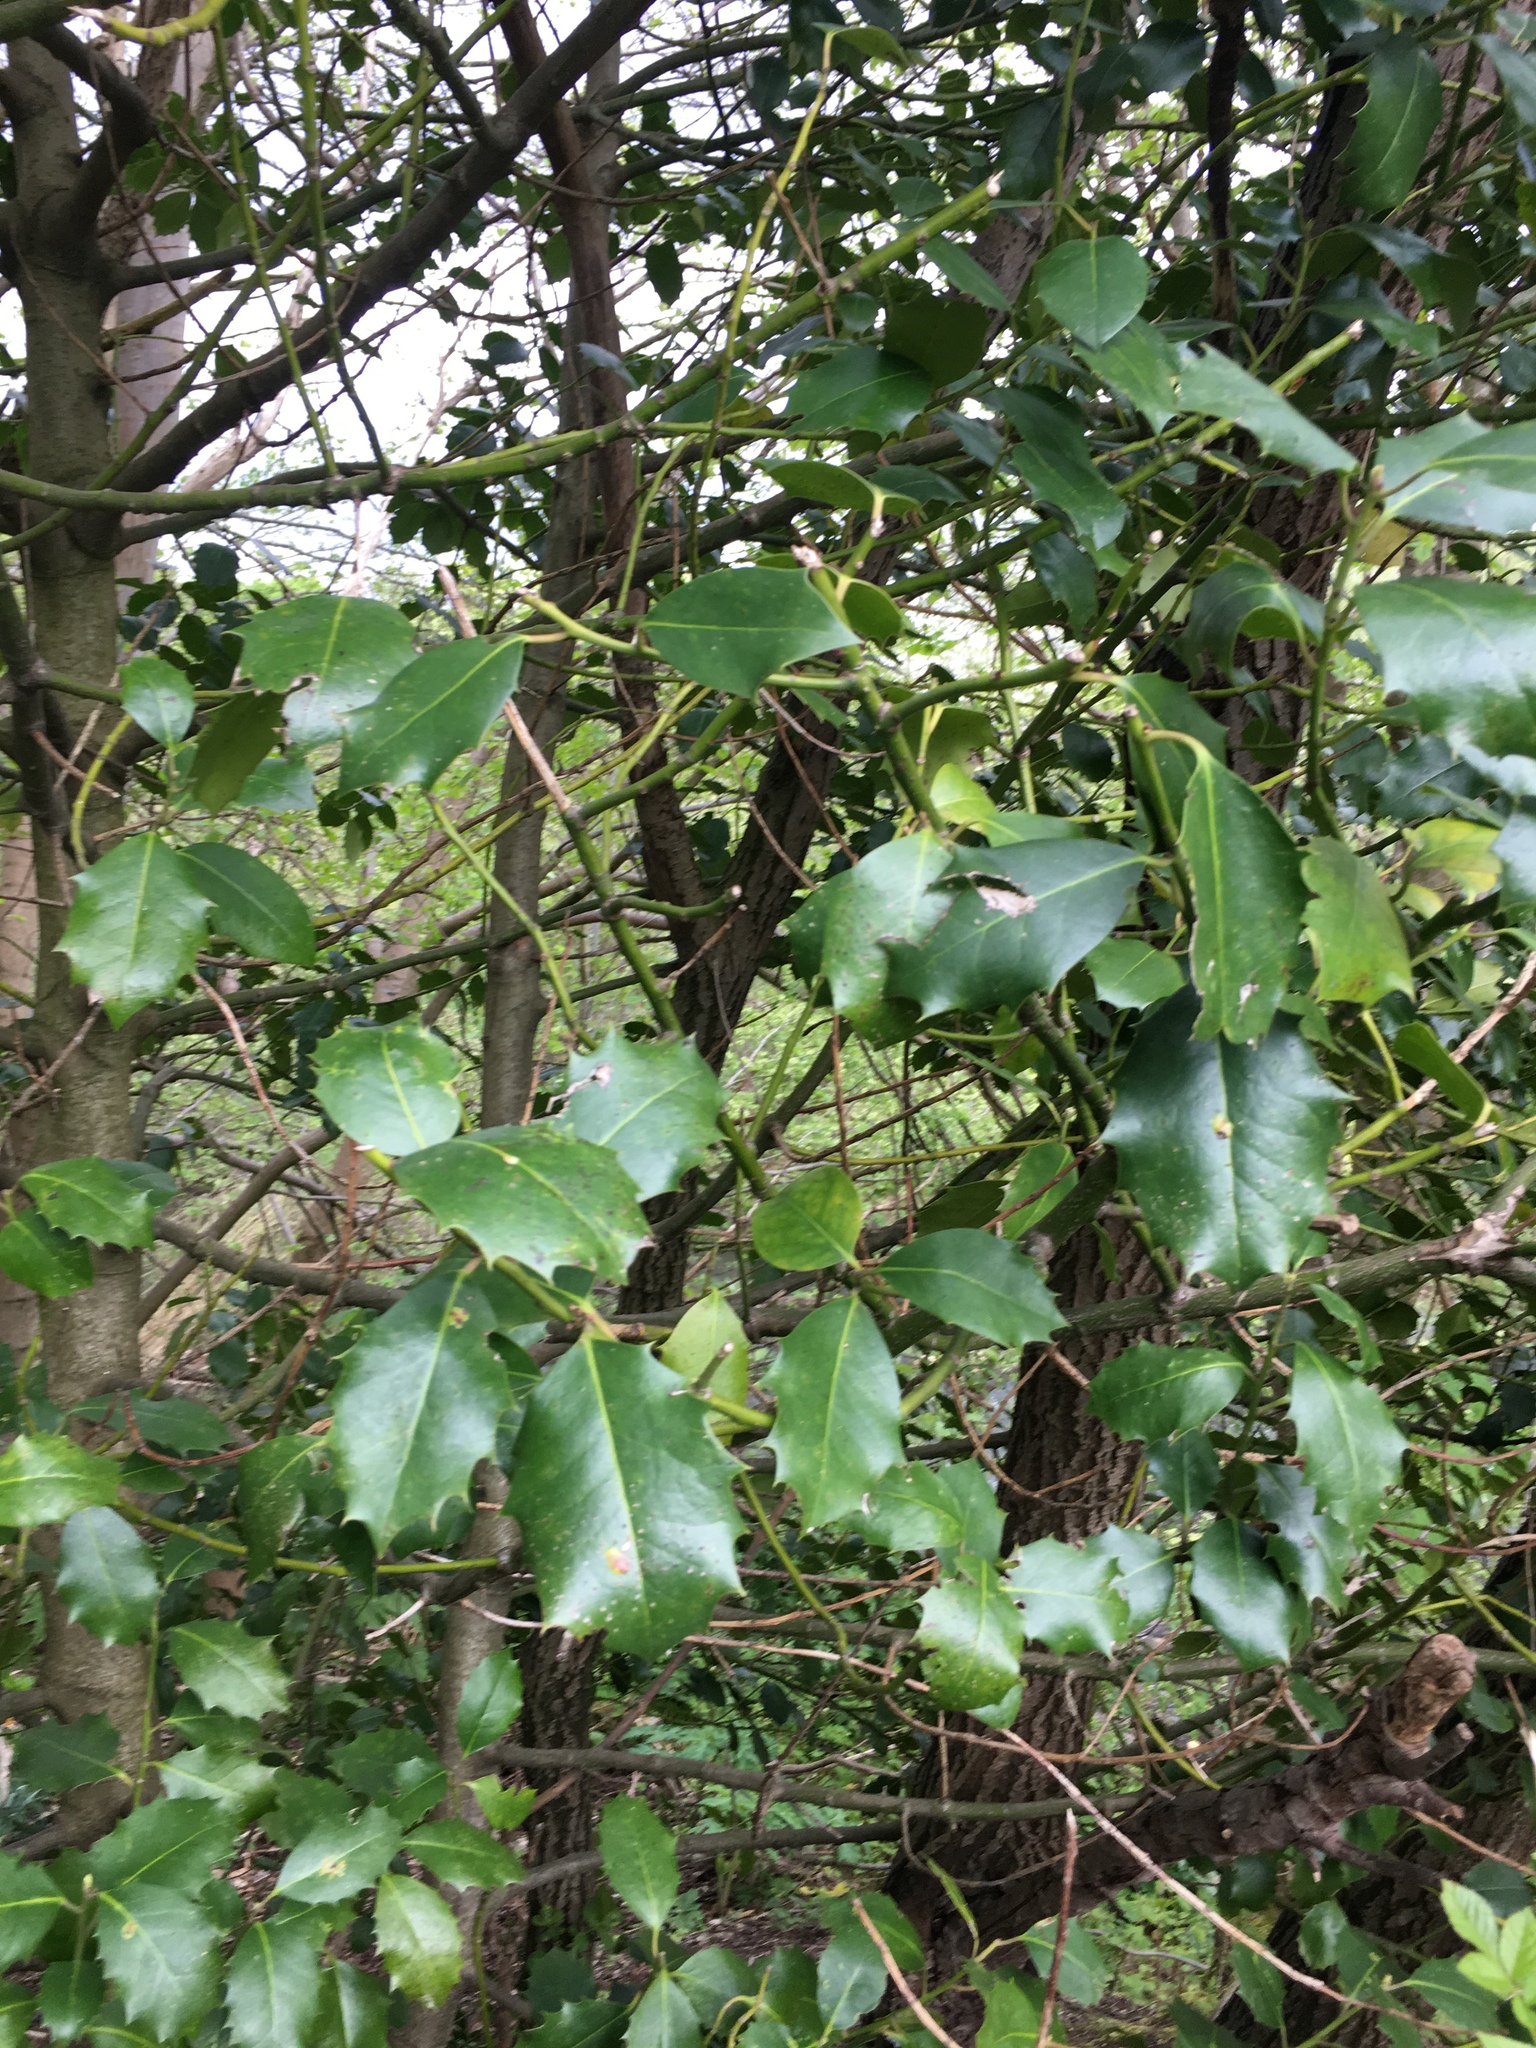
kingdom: Plantae
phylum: Tracheophyta
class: Magnoliopsida
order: Aquifoliales
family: Aquifoliaceae
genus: Ilex
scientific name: Ilex aquifolium
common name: English holly
